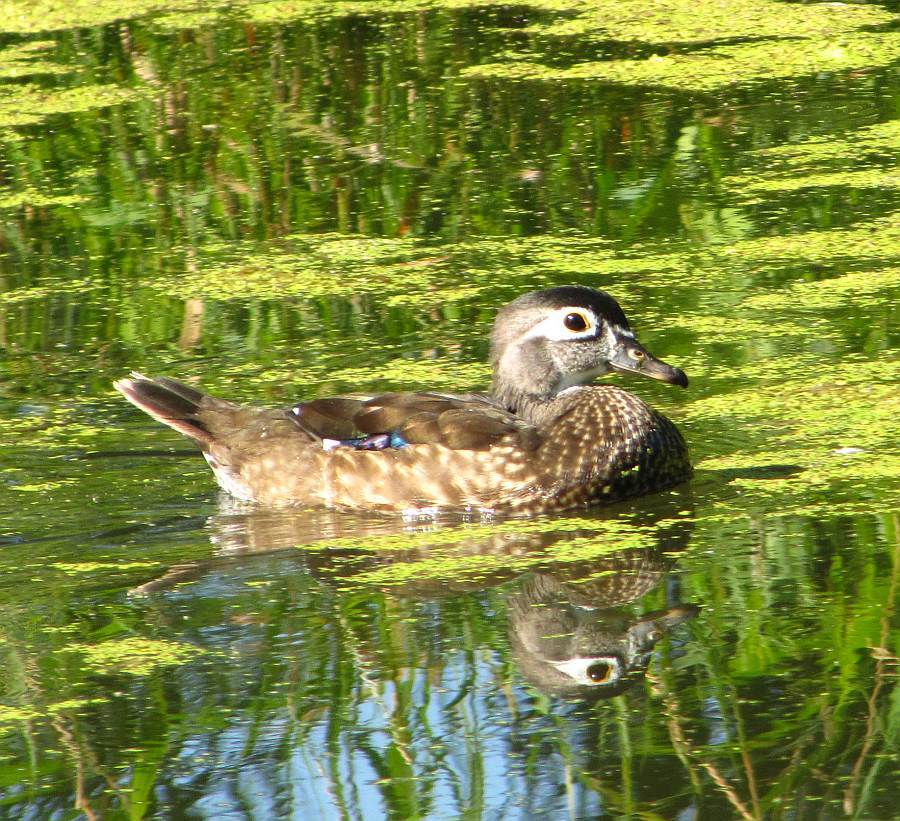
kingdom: Animalia
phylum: Chordata
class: Aves
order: Anseriformes
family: Anatidae
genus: Aix
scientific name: Aix sponsa
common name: Wood duck
